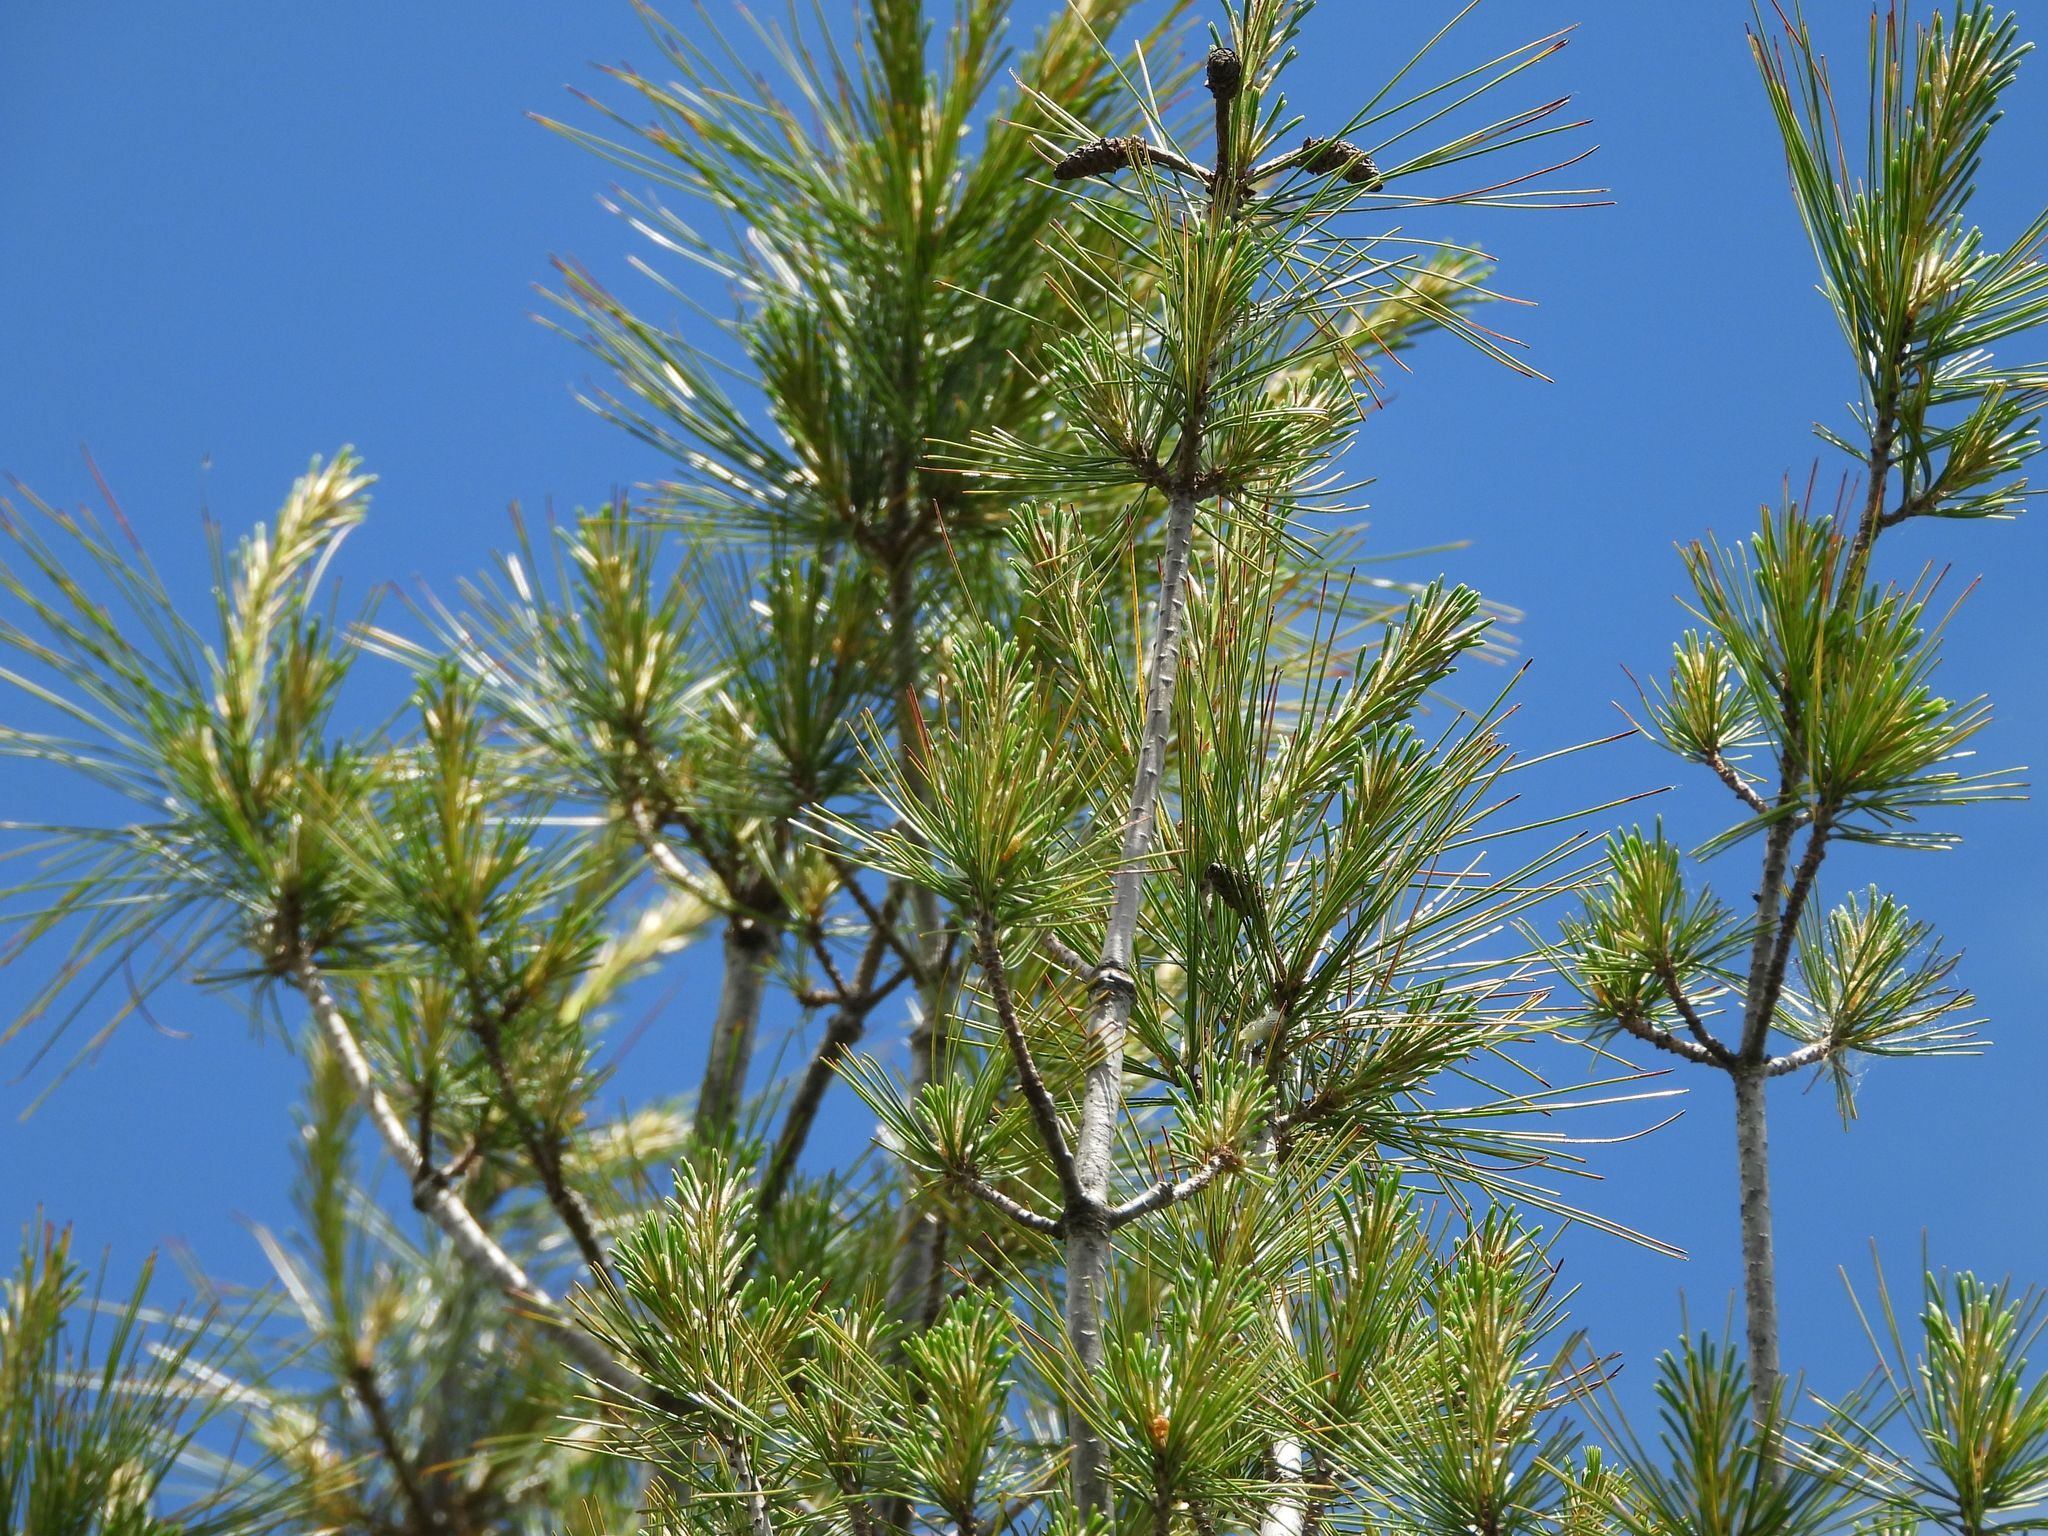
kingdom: Plantae
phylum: Tracheophyta
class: Pinopsida
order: Pinales
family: Pinaceae
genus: Pinus
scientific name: Pinus strobus
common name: Weymouth pine
